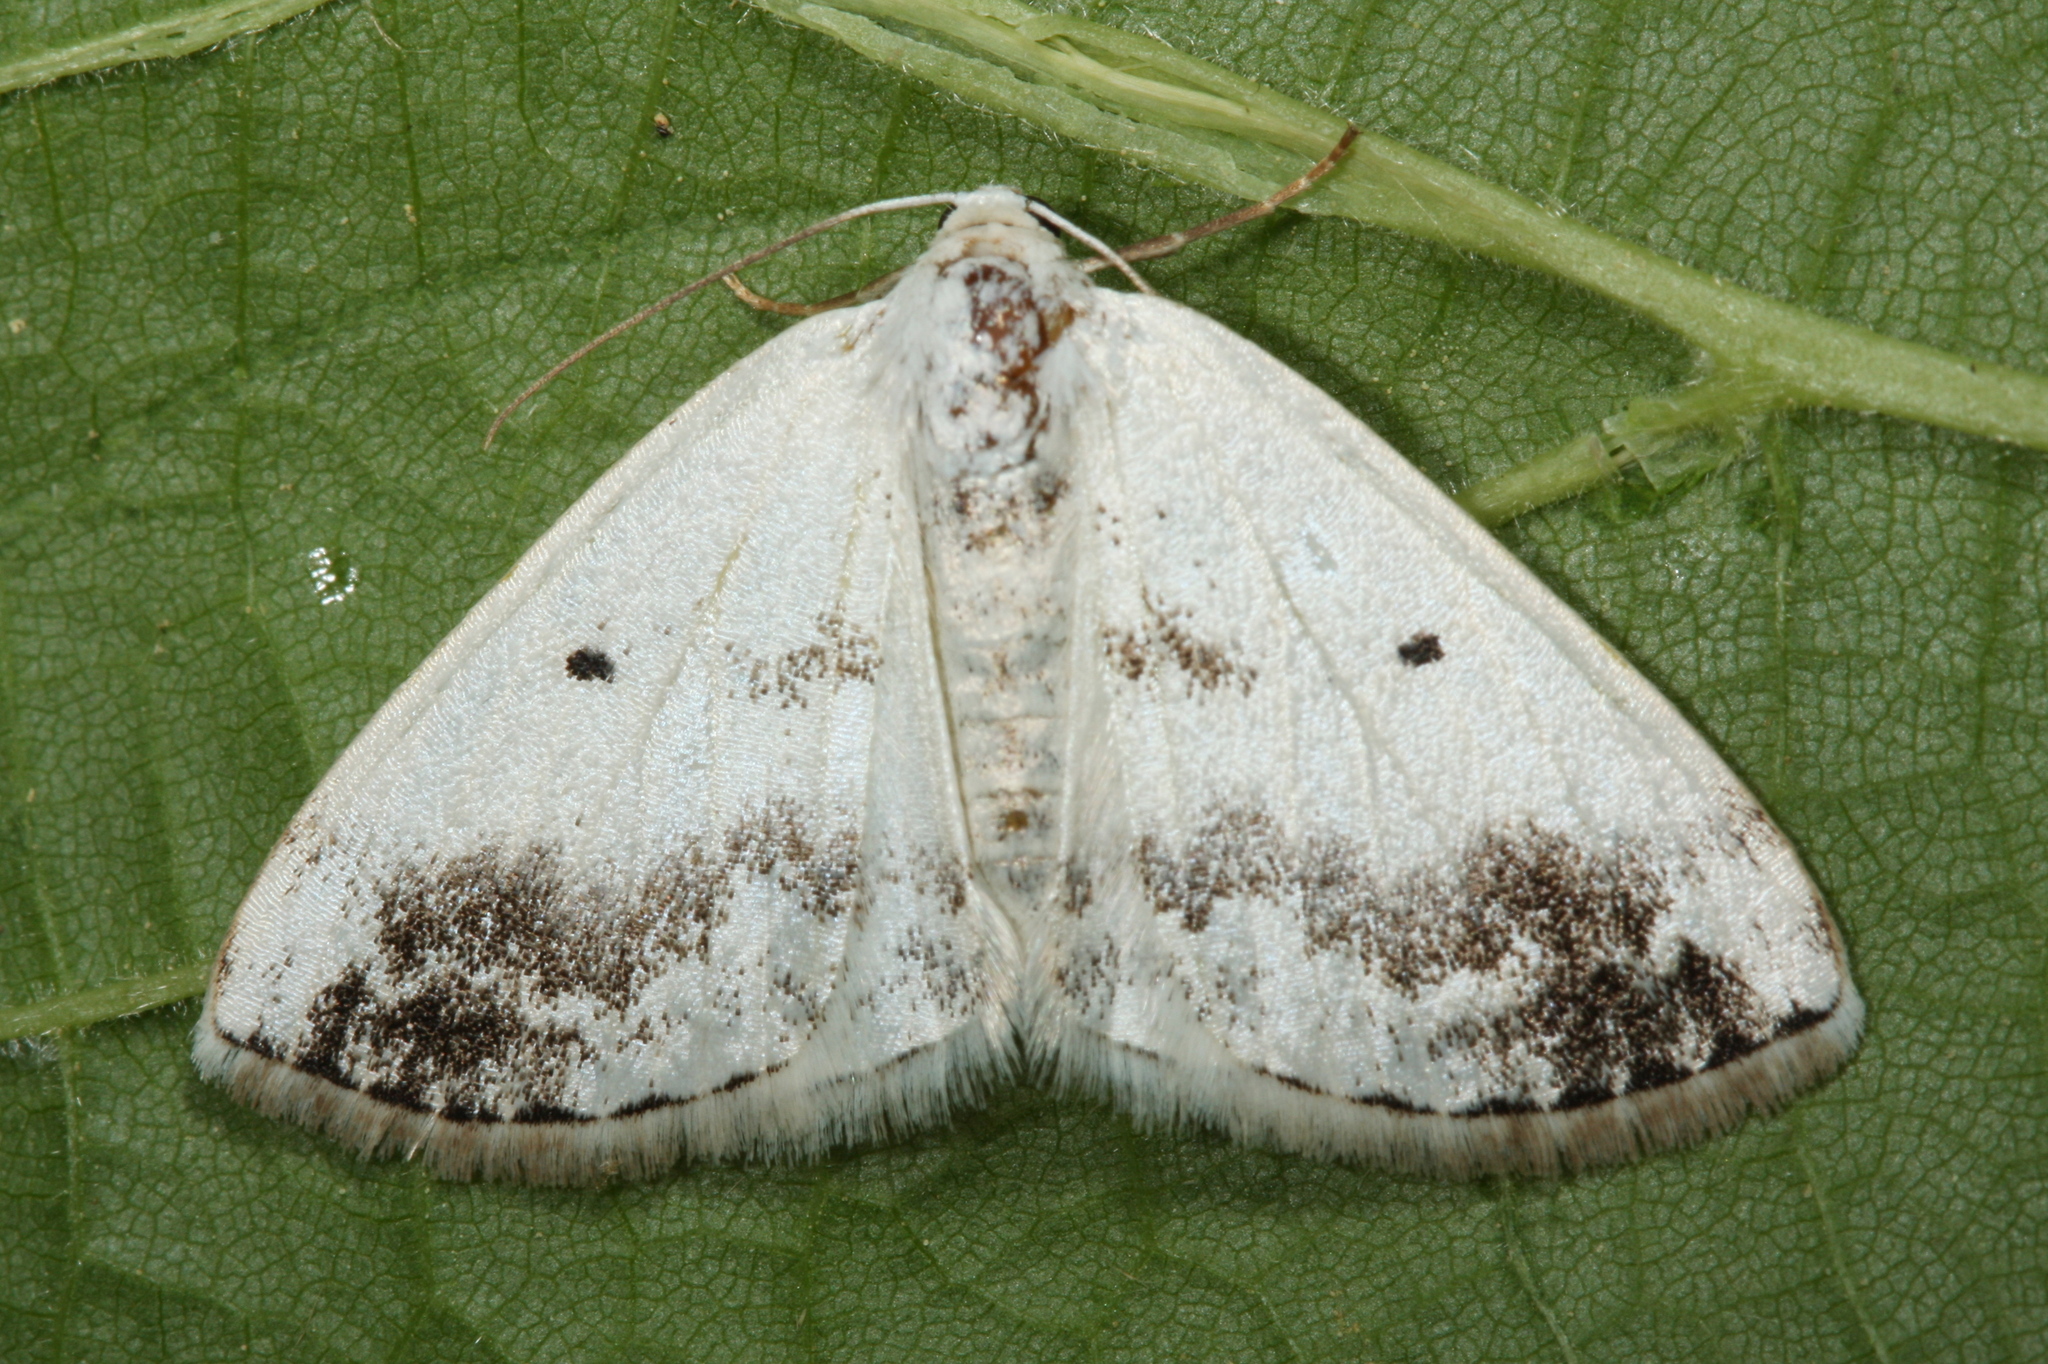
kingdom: Animalia
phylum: Arthropoda
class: Insecta
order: Lepidoptera
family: Geometridae
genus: Lomographa
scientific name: Lomographa temerata
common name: Clouded silver
